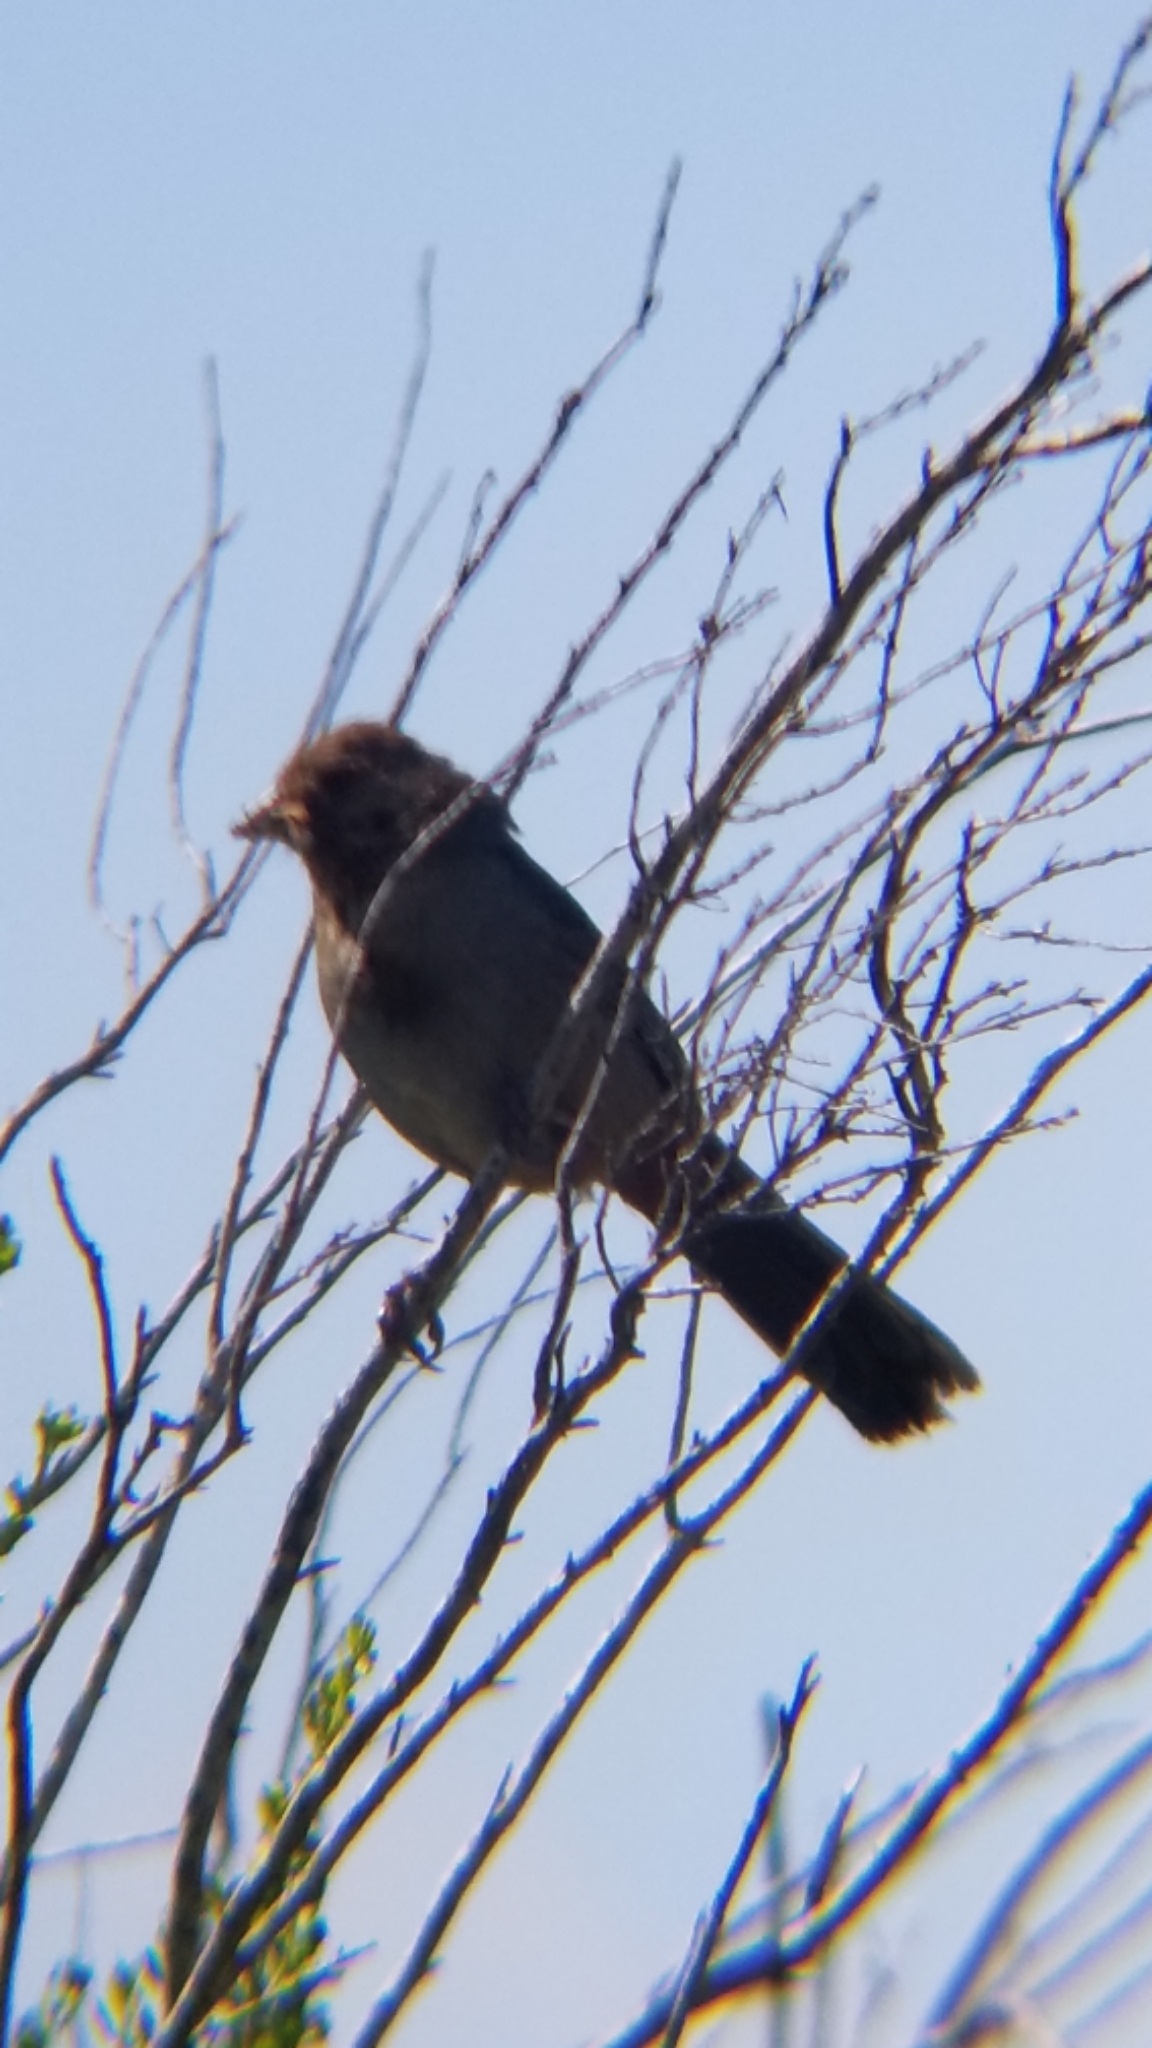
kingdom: Animalia
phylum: Chordata
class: Aves
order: Passeriformes
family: Passerellidae
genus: Melozone
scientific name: Melozone crissalis
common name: California towhee
